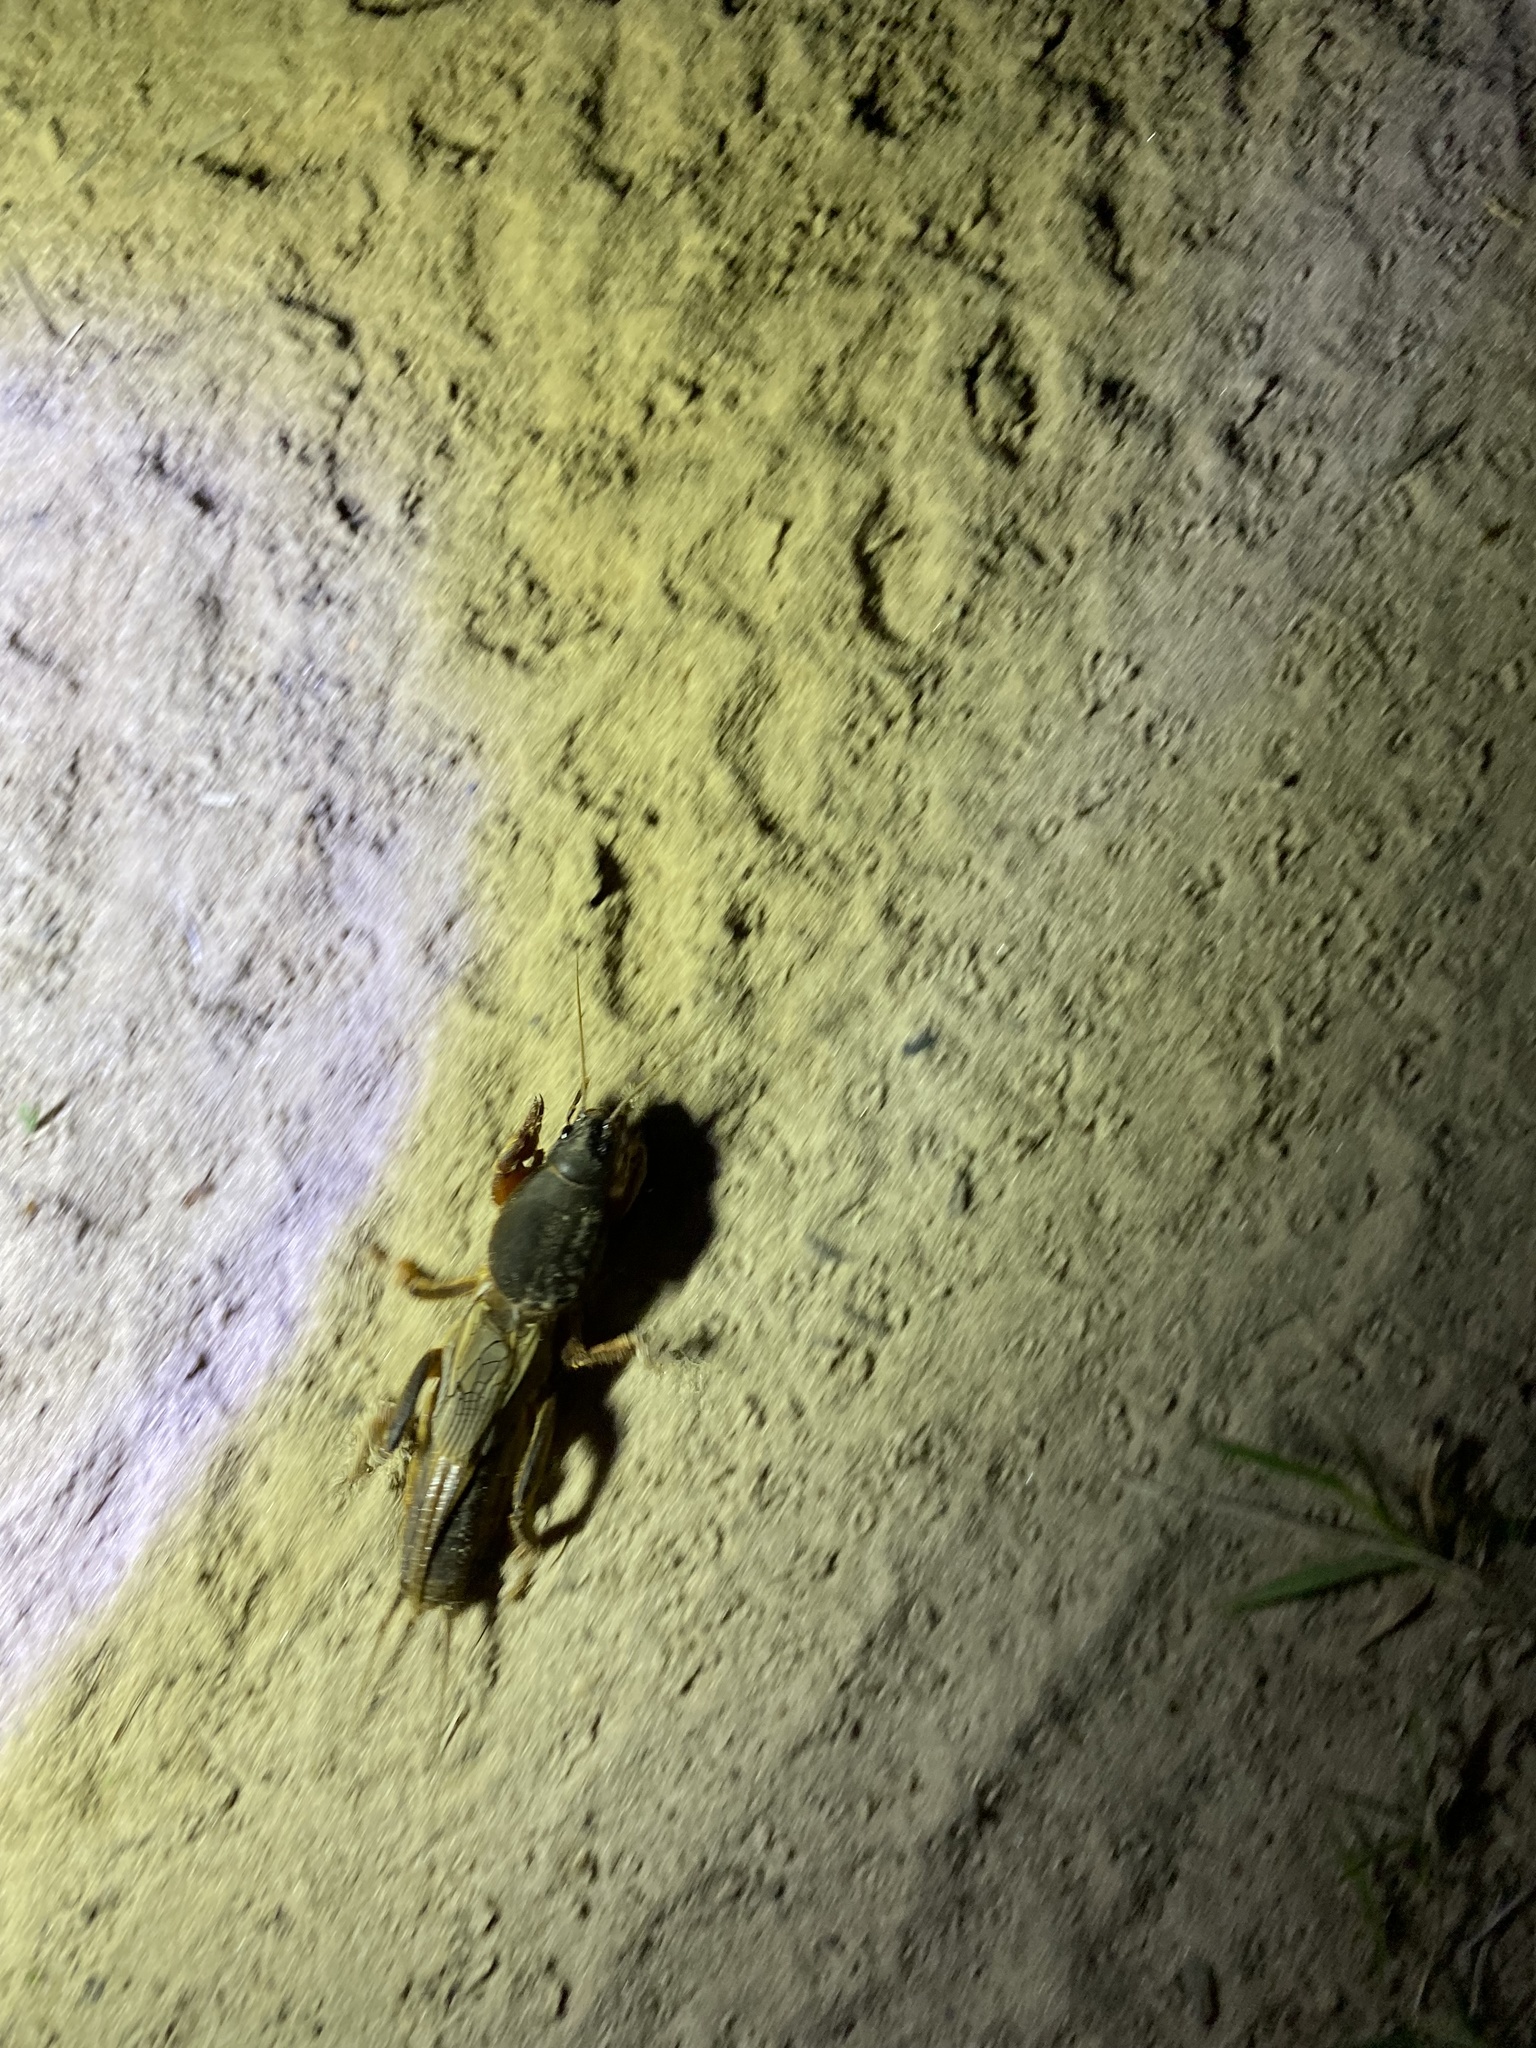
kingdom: Animalia
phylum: Arthropoda
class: Insecta
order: Orthoptera
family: Gryllotalpidae
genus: Gryllotalpa
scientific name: Gryllotalpa gryllotalpa
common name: European mole cricket
